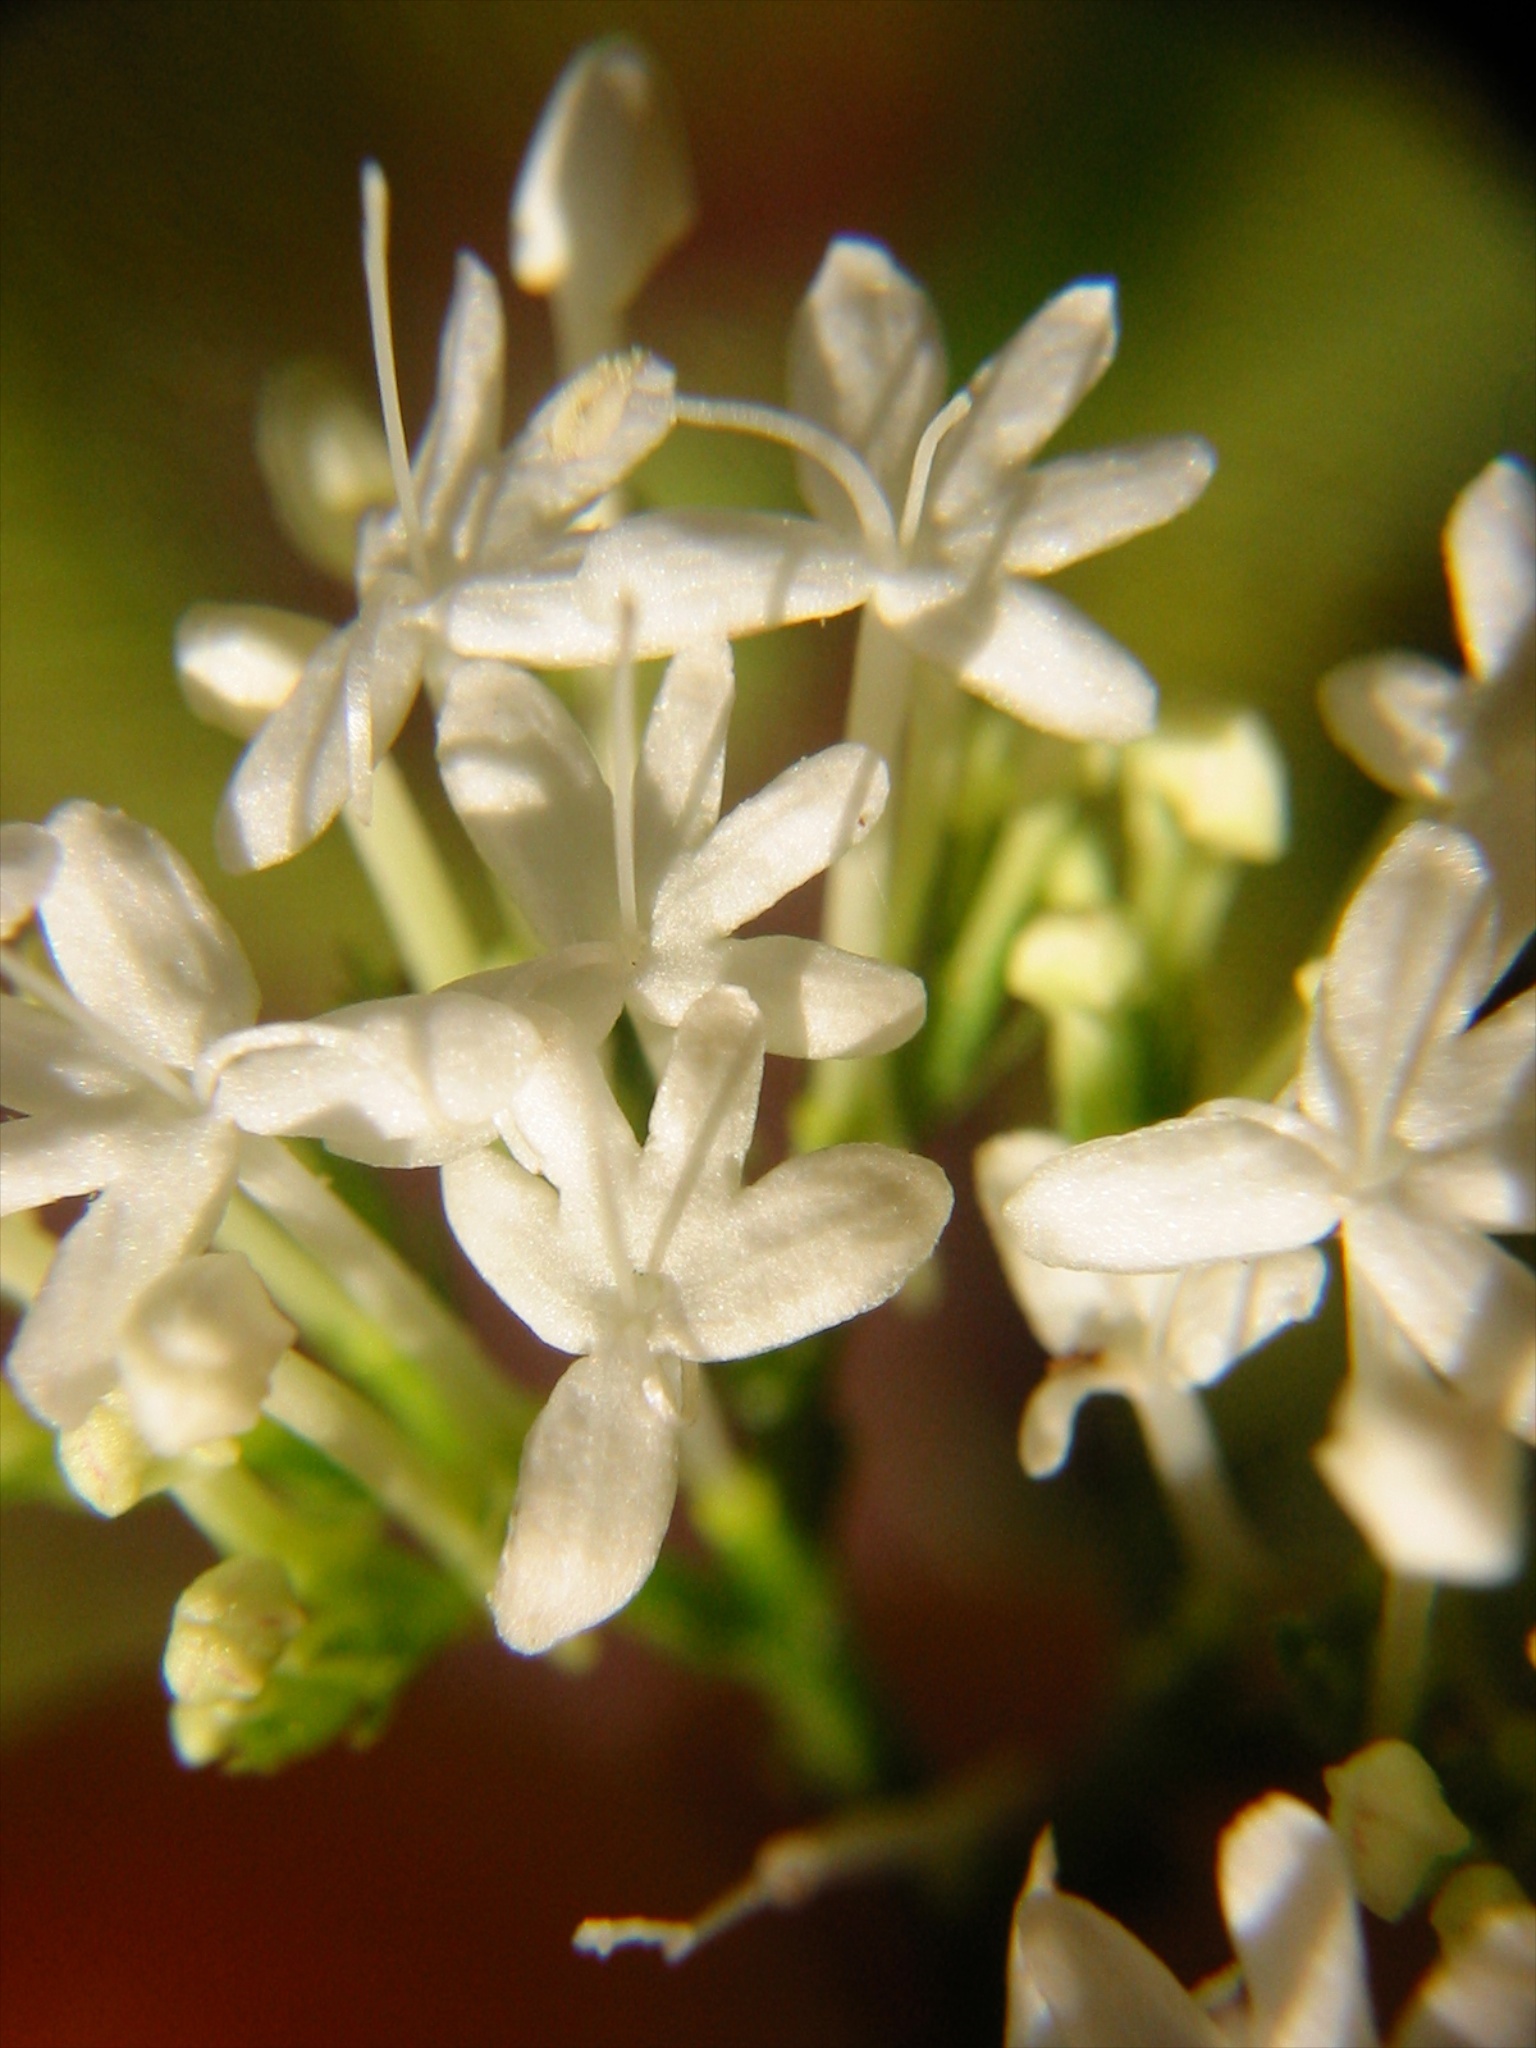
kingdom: Plantae
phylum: Tracheophyta
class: Magnoliopsida
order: Dipsacales
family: Caprifoliaceae
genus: Centranthus
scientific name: Centranthus ruber
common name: Red valerian
